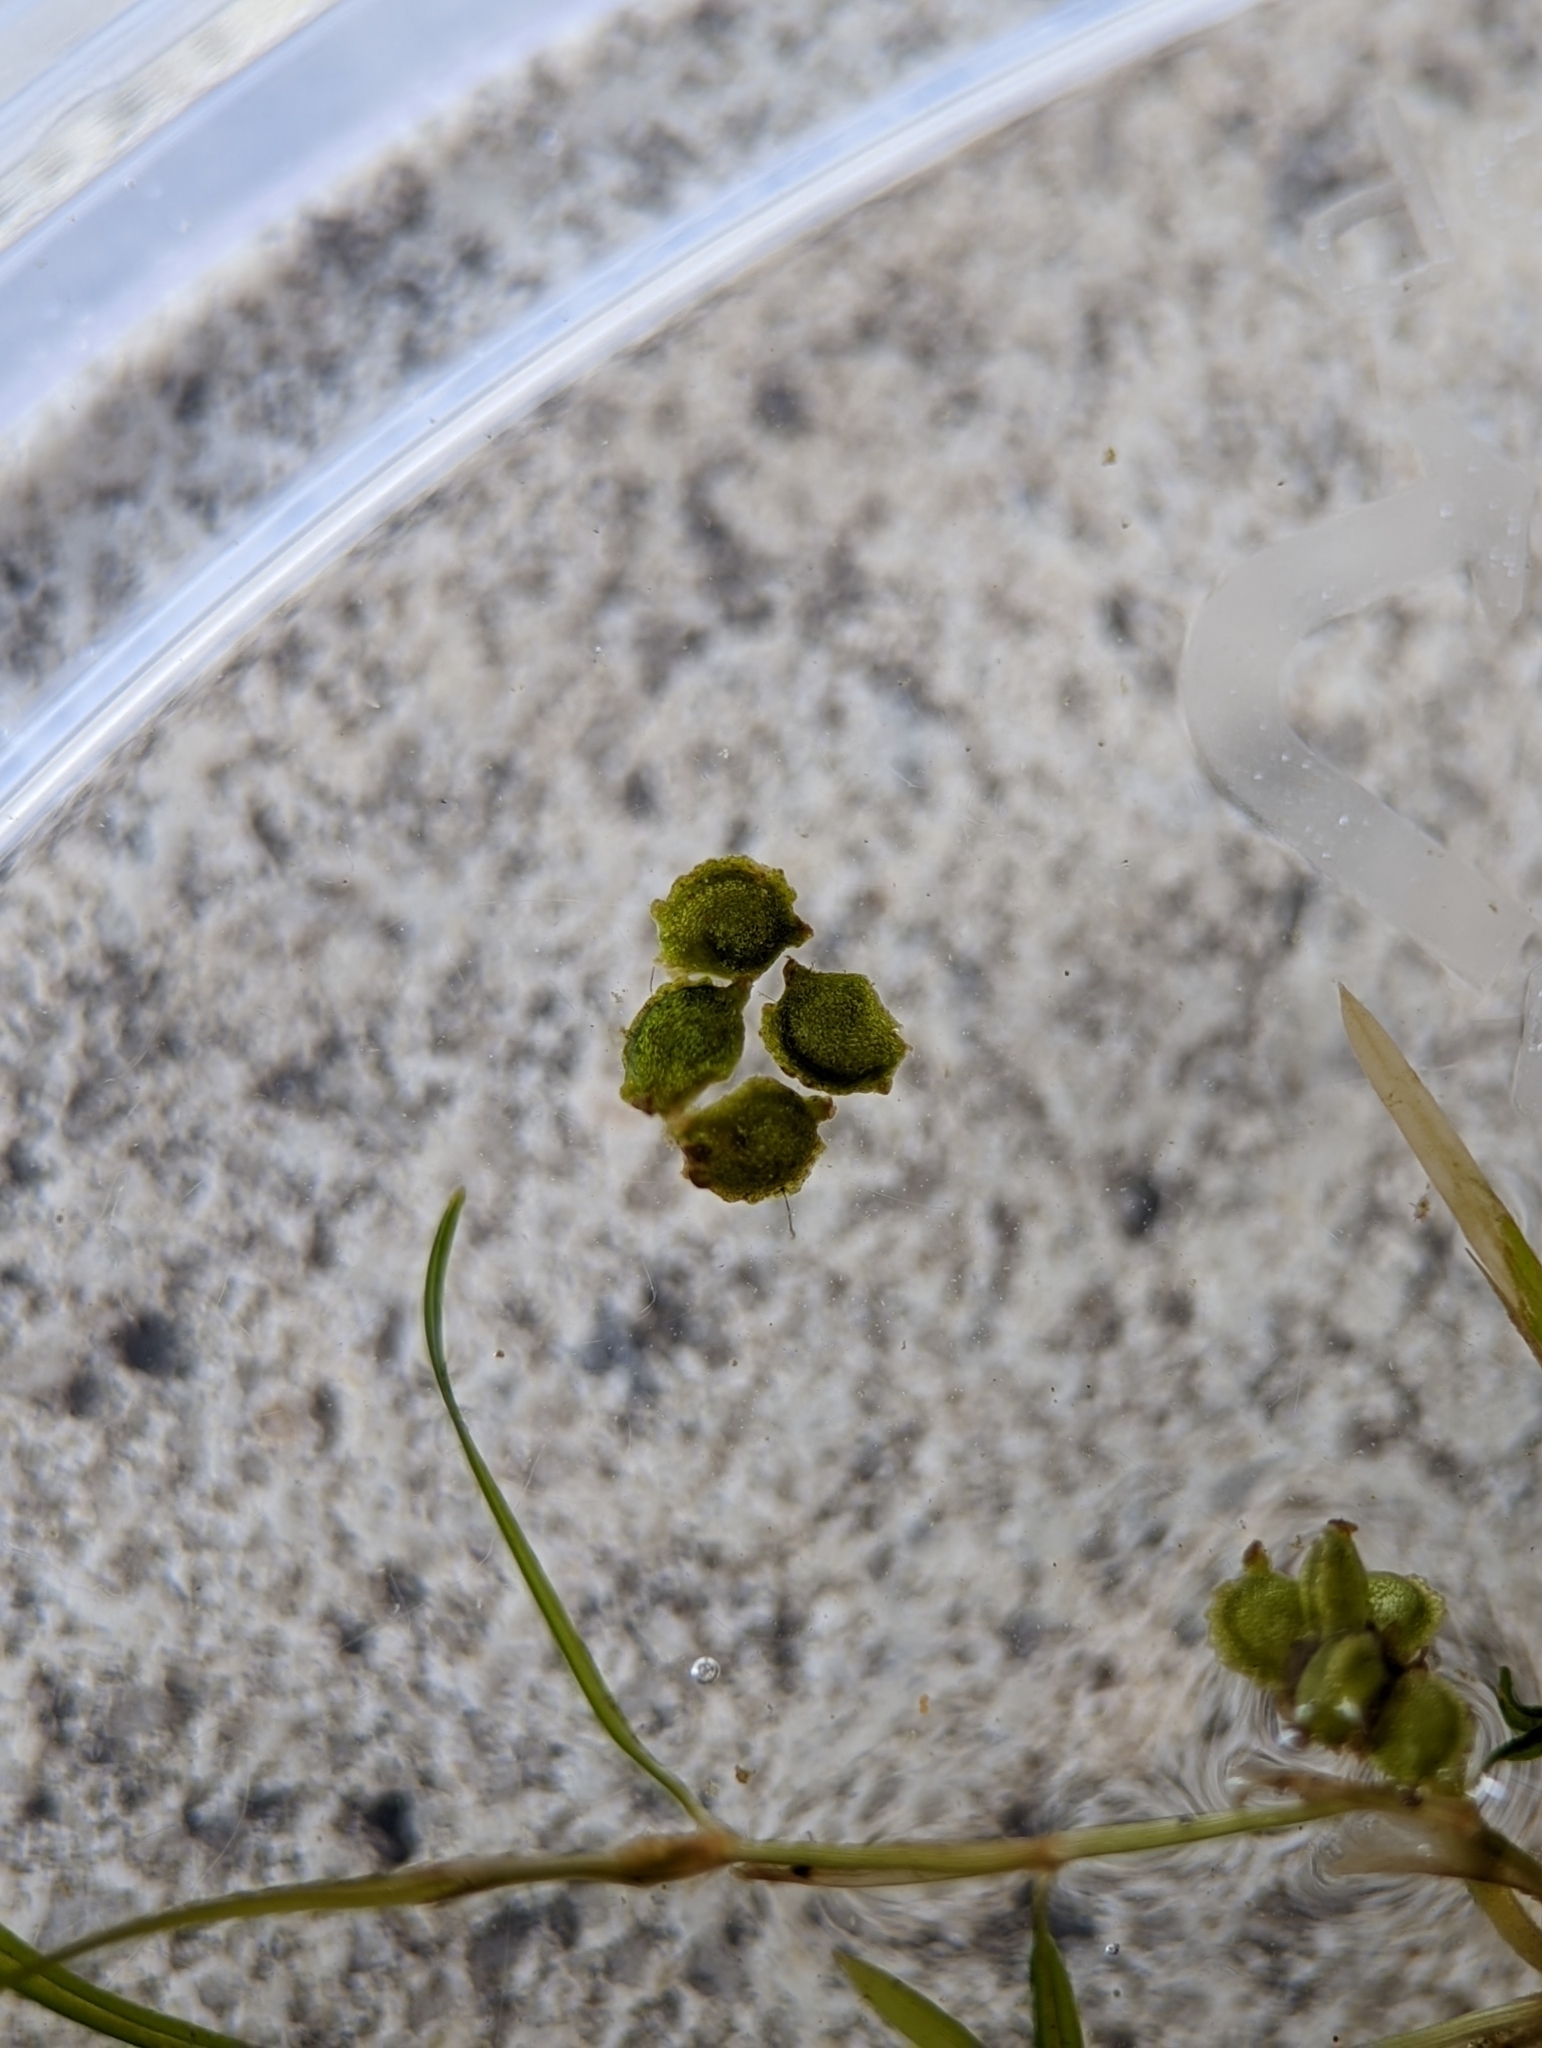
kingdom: Plantae
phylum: Tracheophyta
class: Liliopsida
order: Alismatales
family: Potamogetonaceae
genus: Potamogeton
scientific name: Potamogeton foliosus
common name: Leafy pondweed
